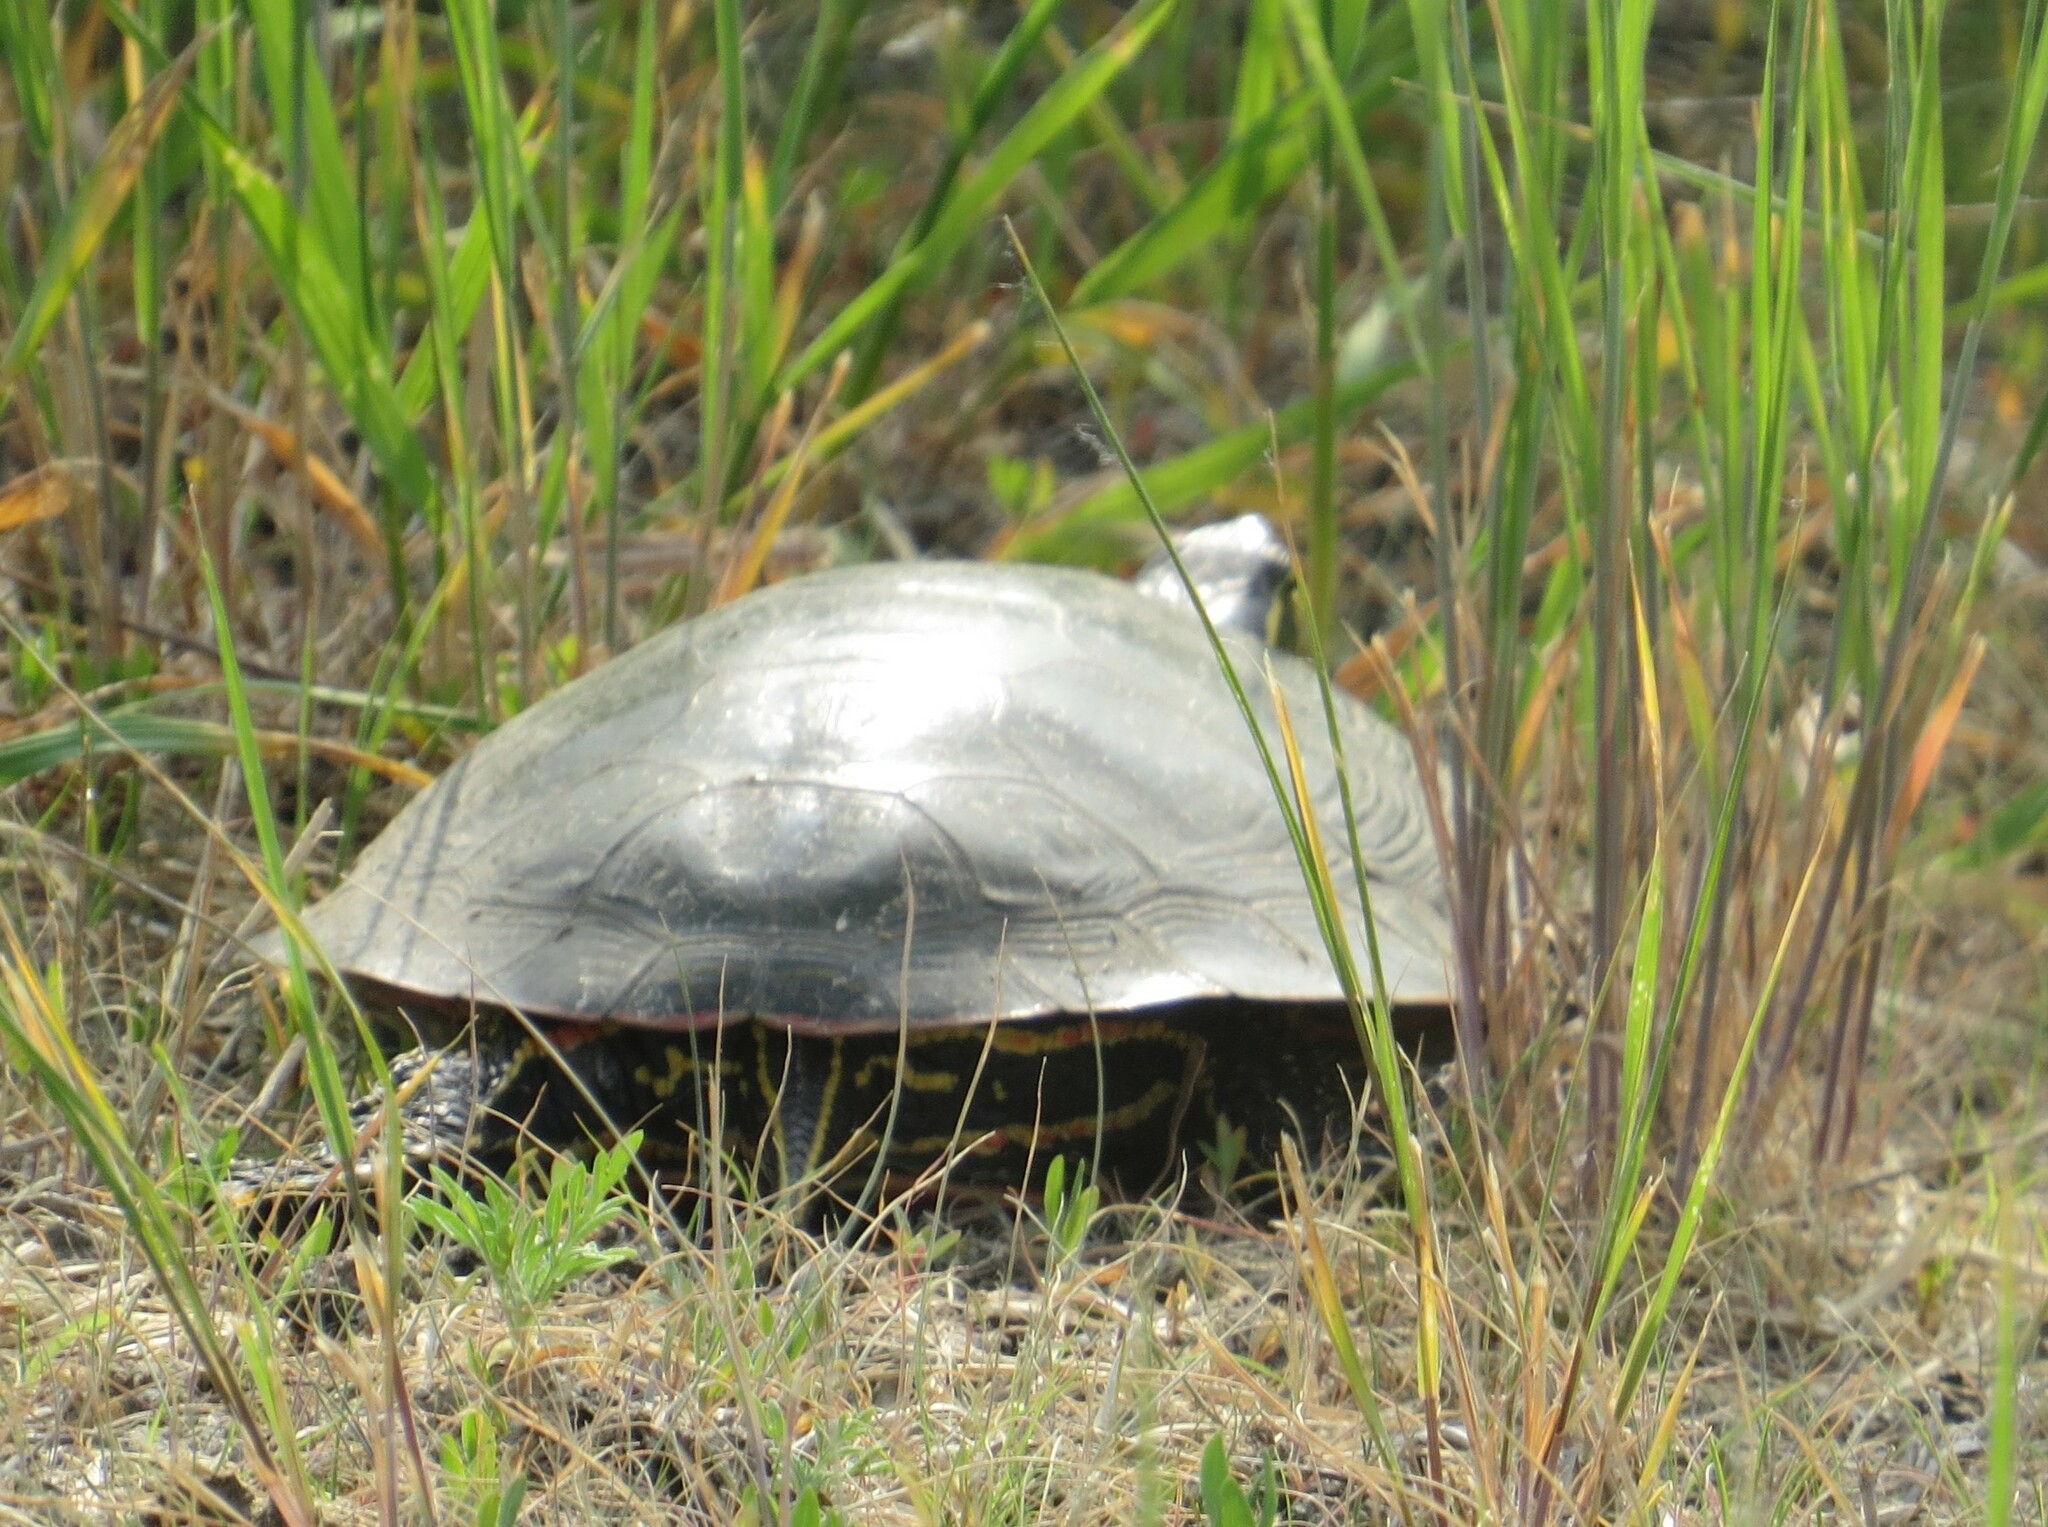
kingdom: Animalia
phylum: Chordata
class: Testudines
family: Emydidae
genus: Chrysemys
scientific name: Chrysemys picta
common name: Painted turtle
